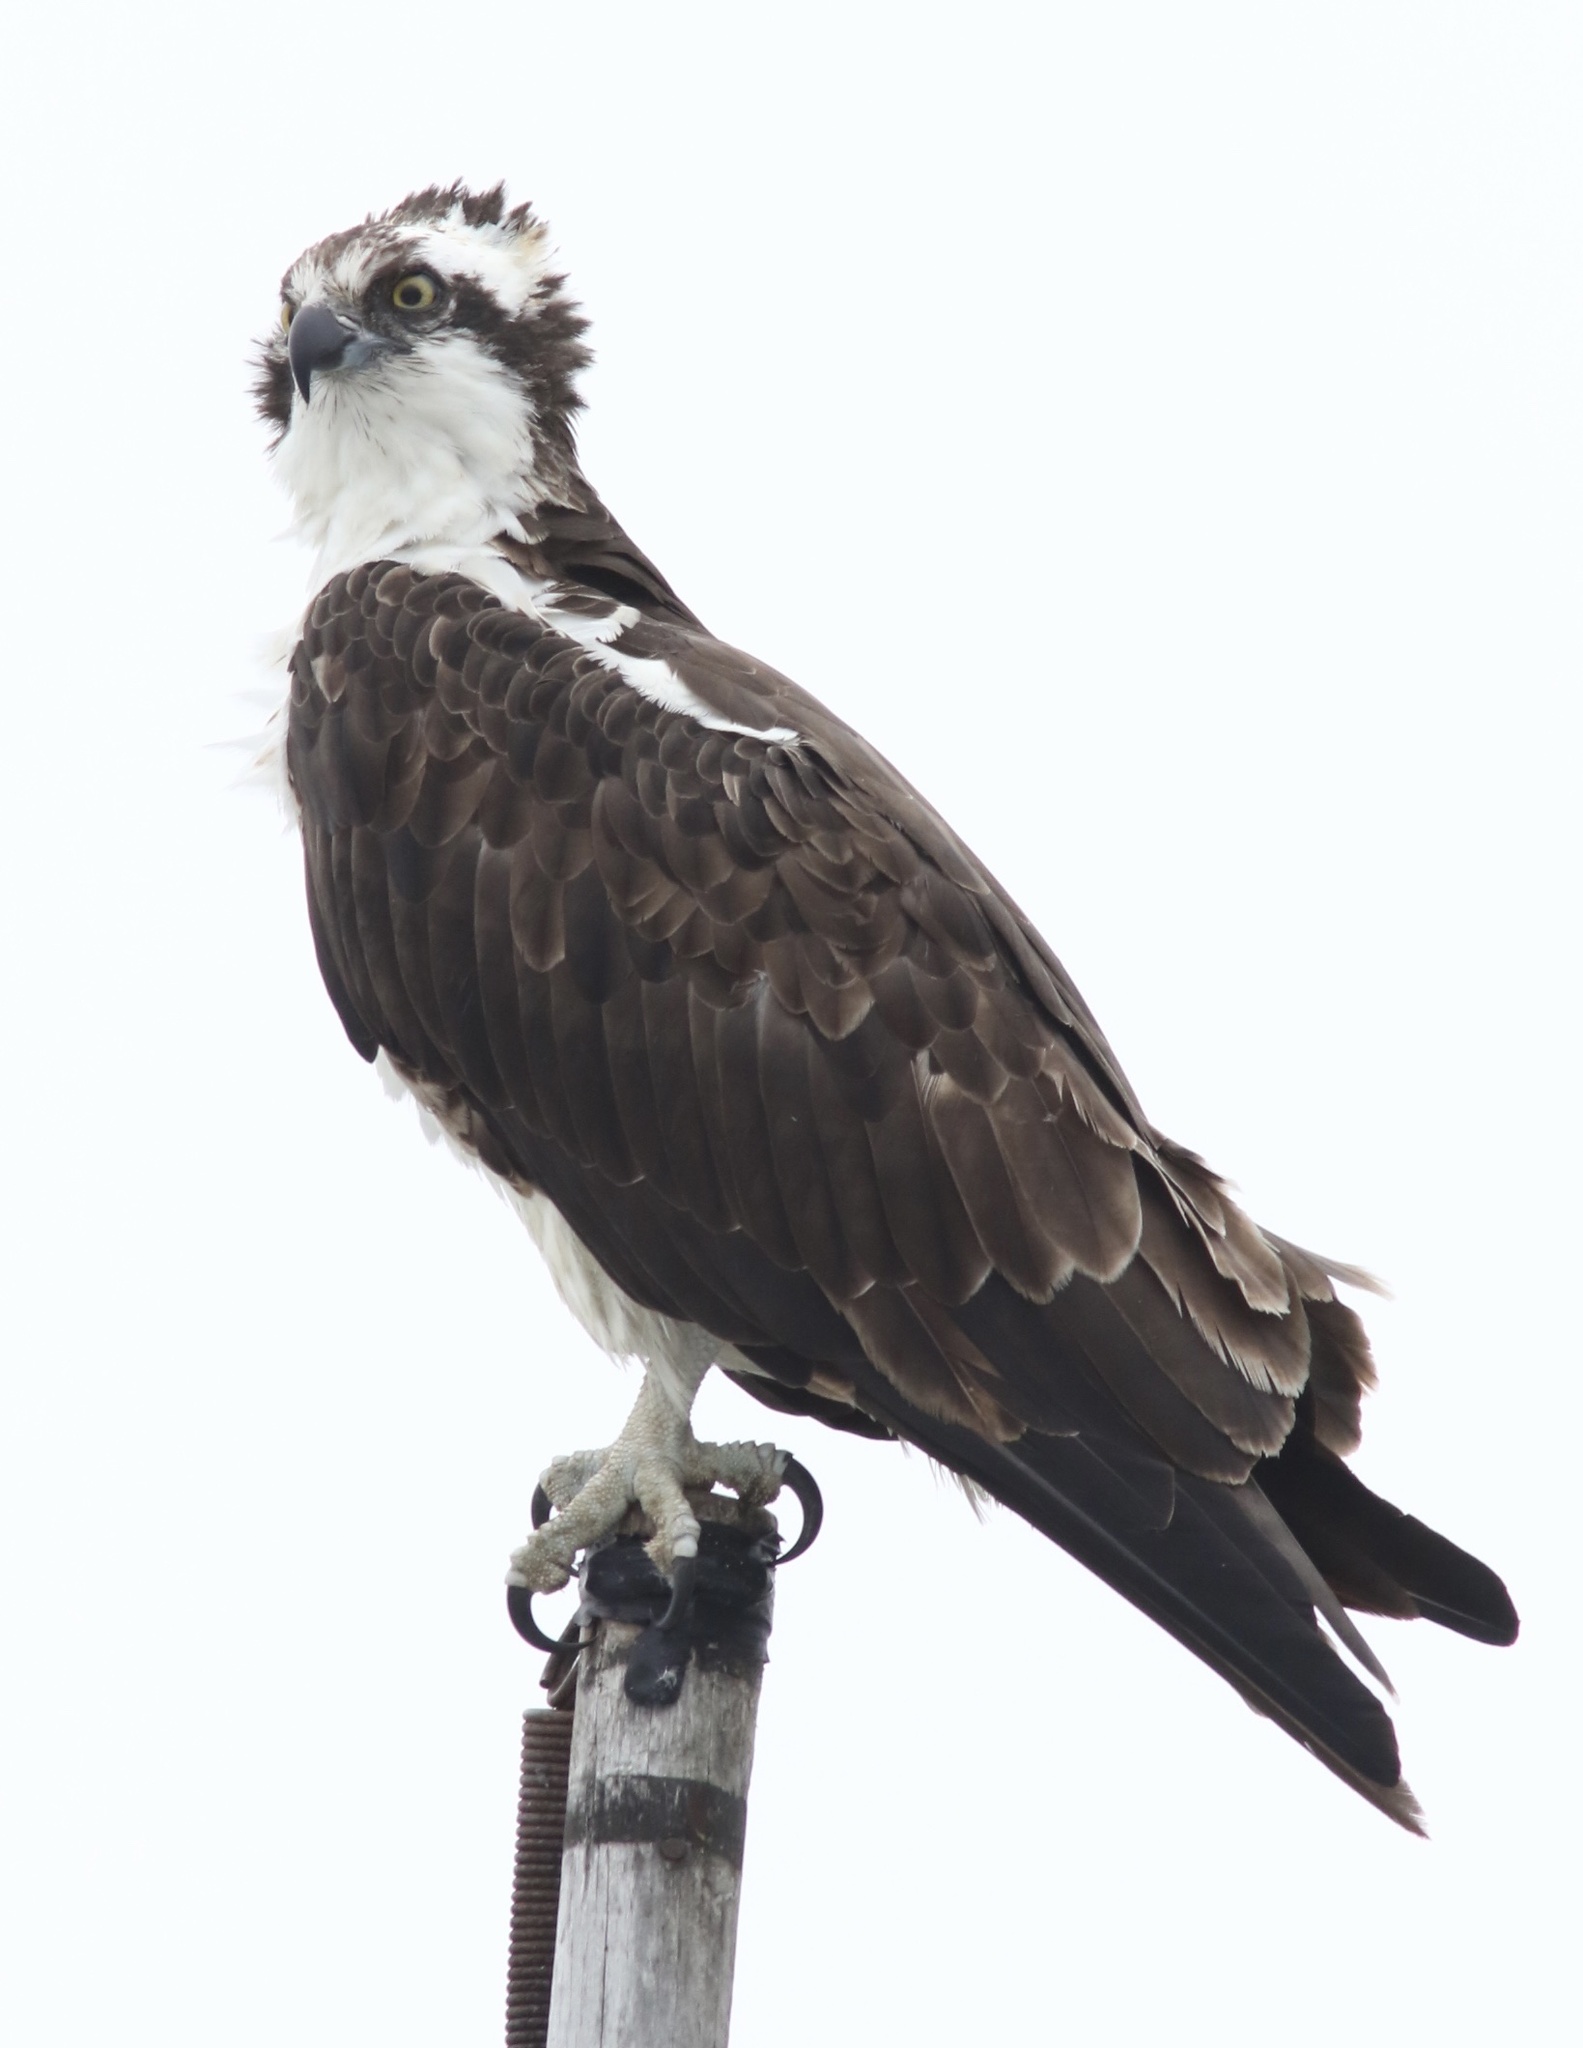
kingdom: Animalia
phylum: Chordata
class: Aves
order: Accipitriformes
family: Pandionidae
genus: Pandion
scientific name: Pandion haliaetus
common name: Osprey
